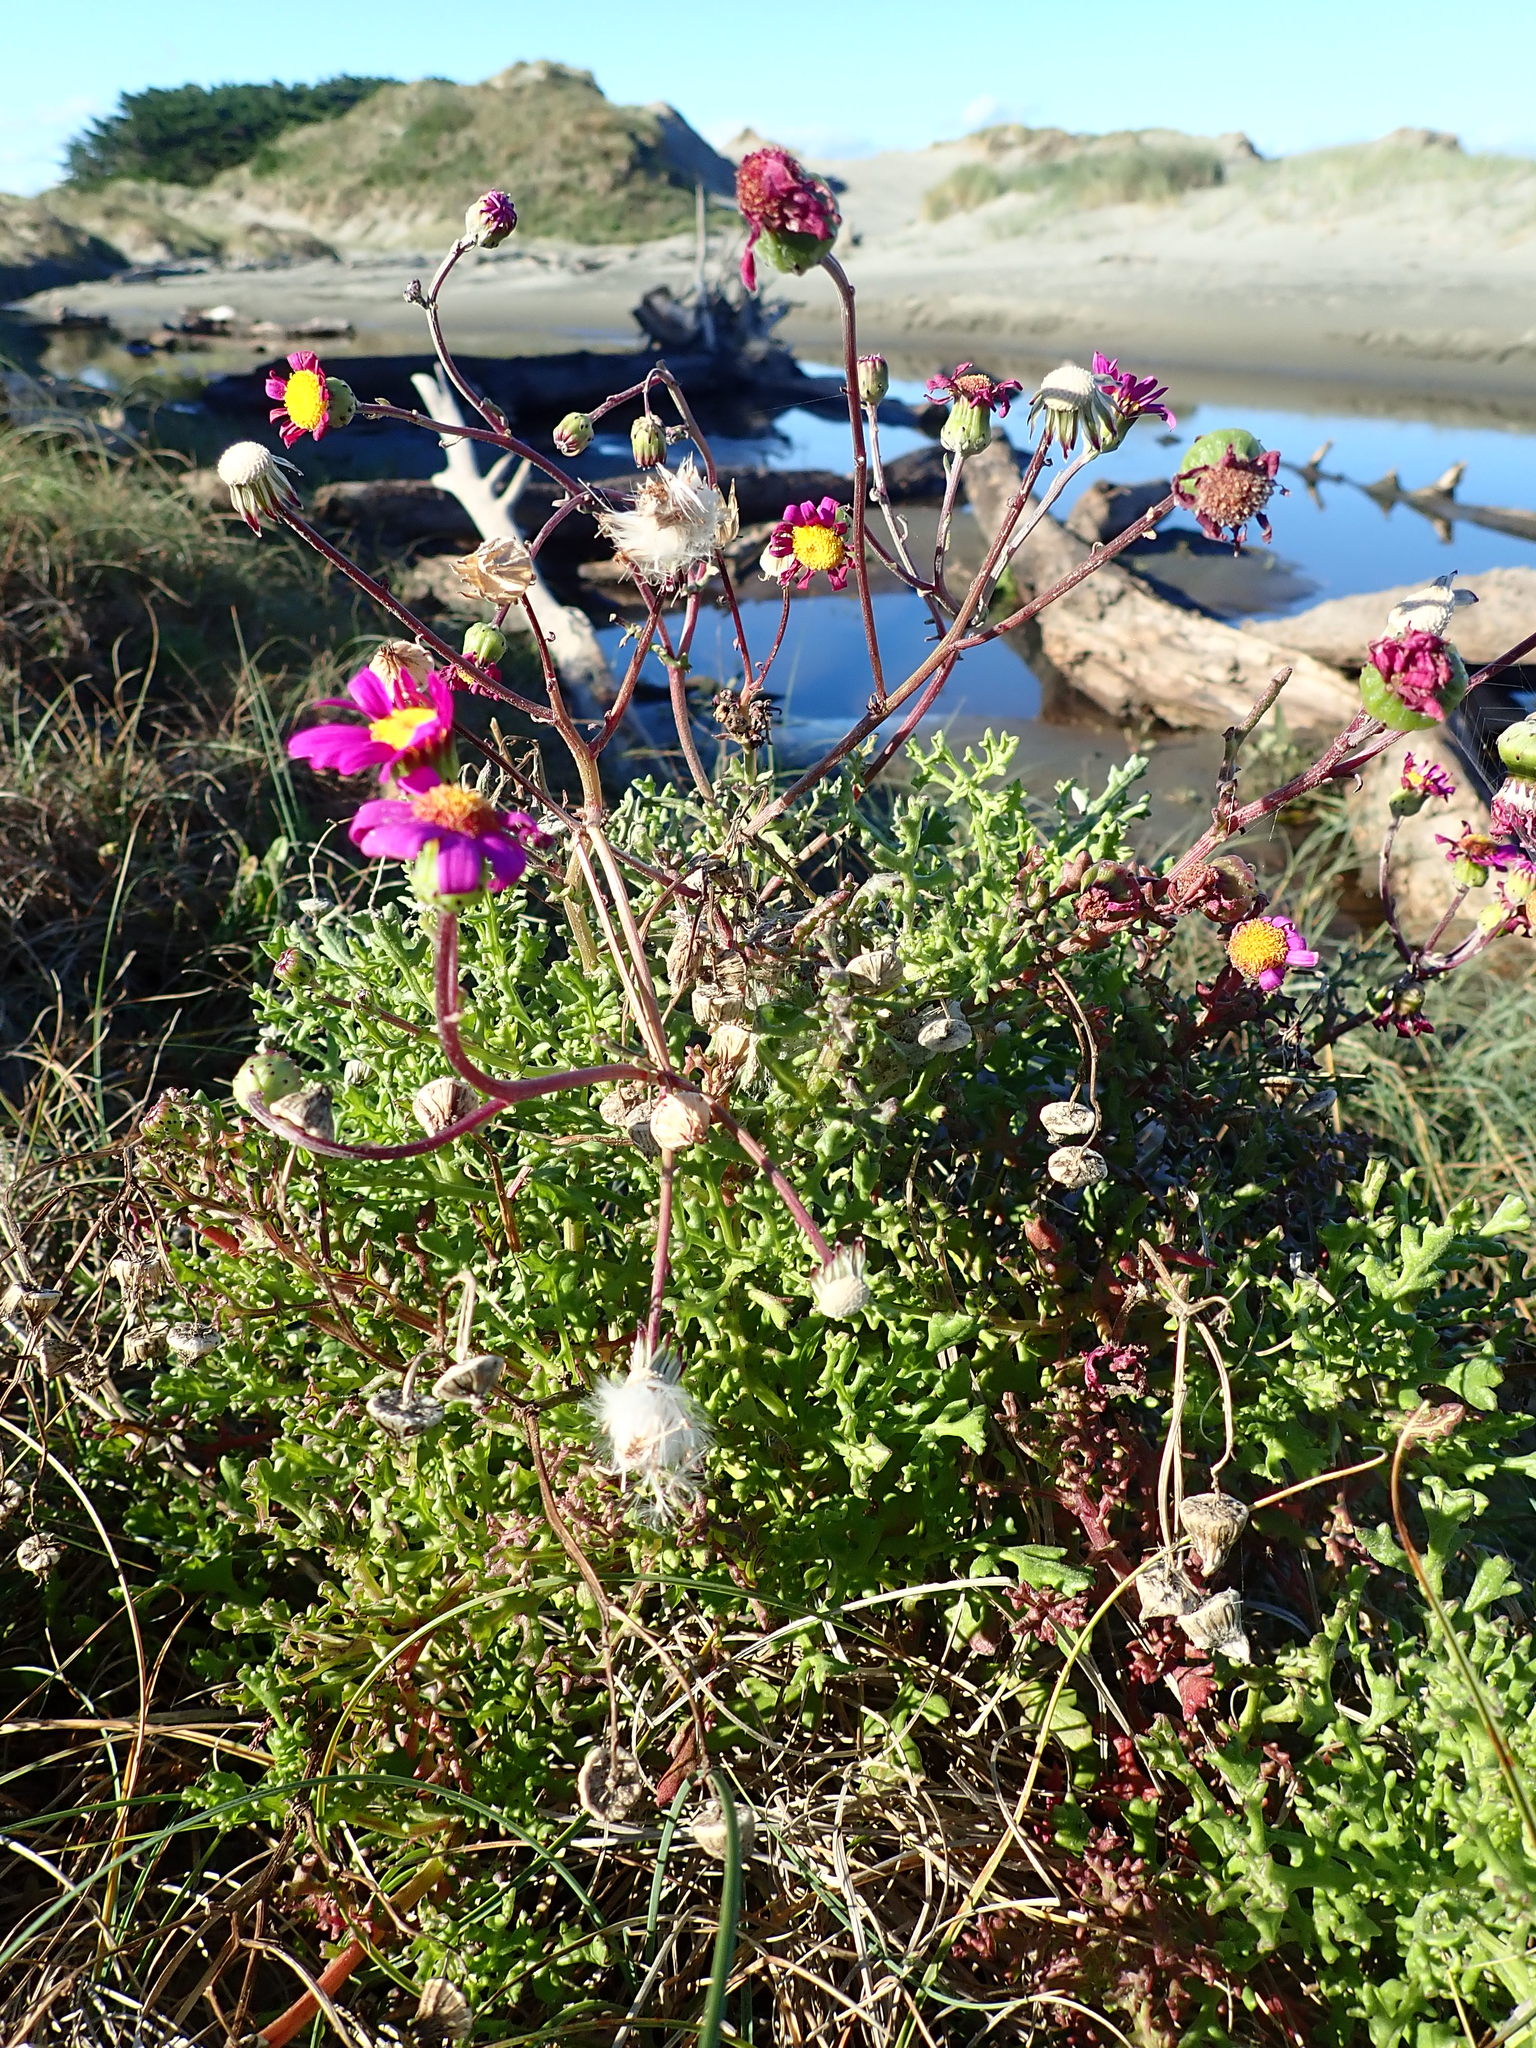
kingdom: Plantae
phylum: Tracheophyta
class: Magnoliopsida
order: Asterales
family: Asteraceae
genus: Senecio
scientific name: Senecio elegans
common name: Purple groundsel
